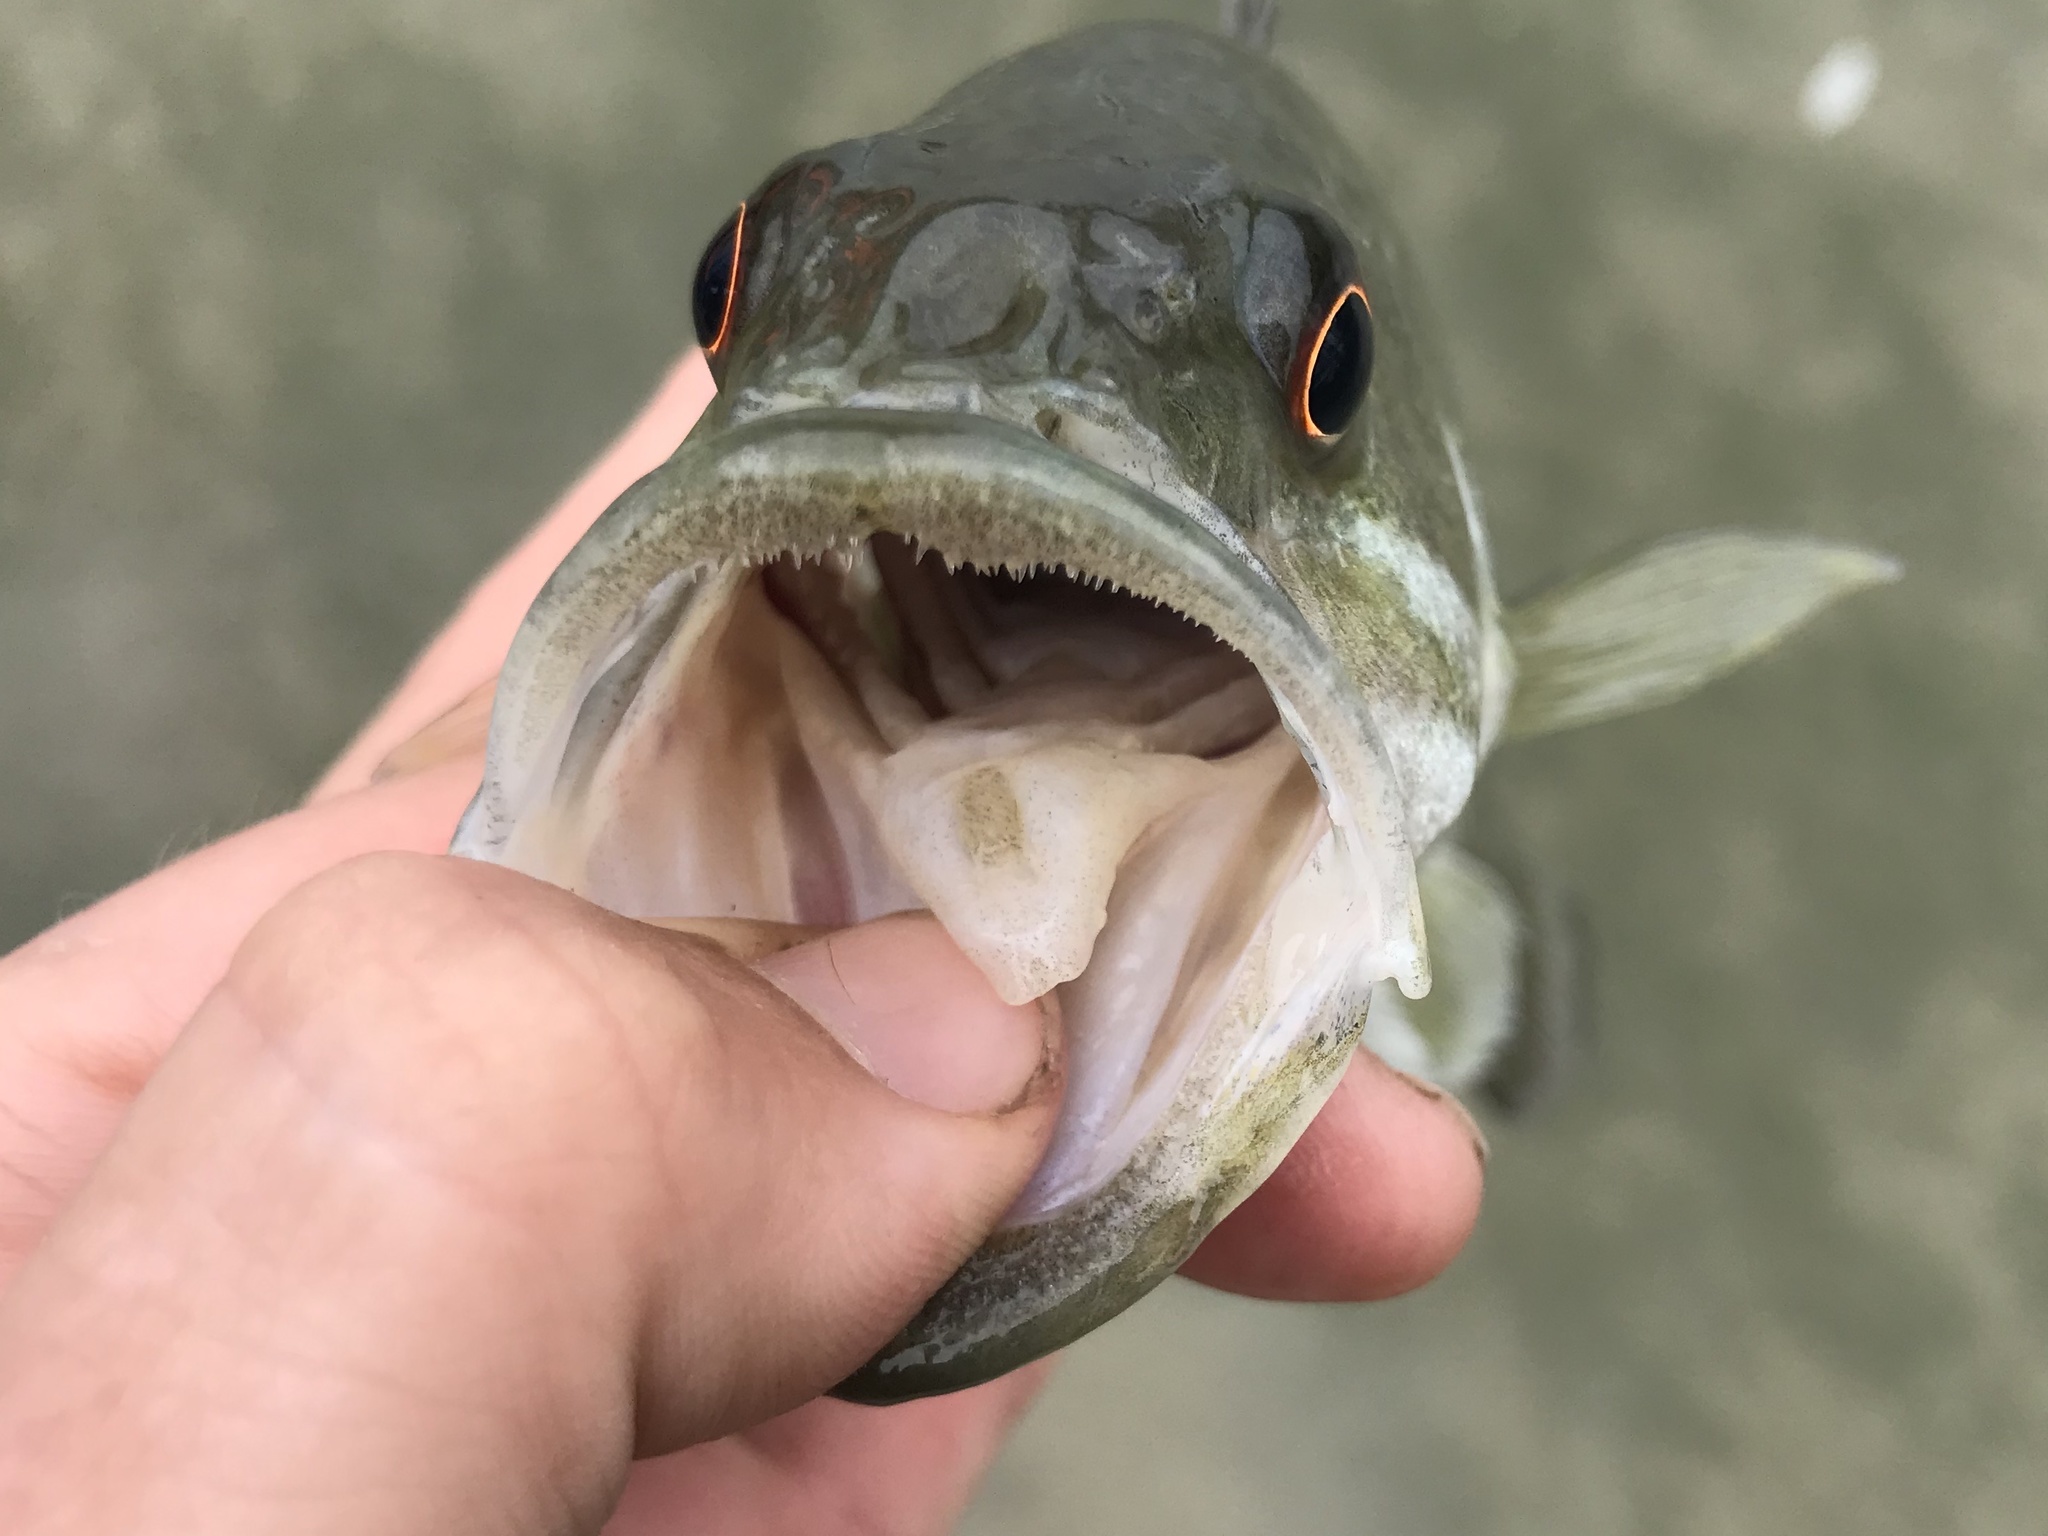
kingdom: Animalia
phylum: Chordata
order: Perciformes
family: Centrarchidae
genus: Micropterus
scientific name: Micropterus treculii
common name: Guadalupe bass
